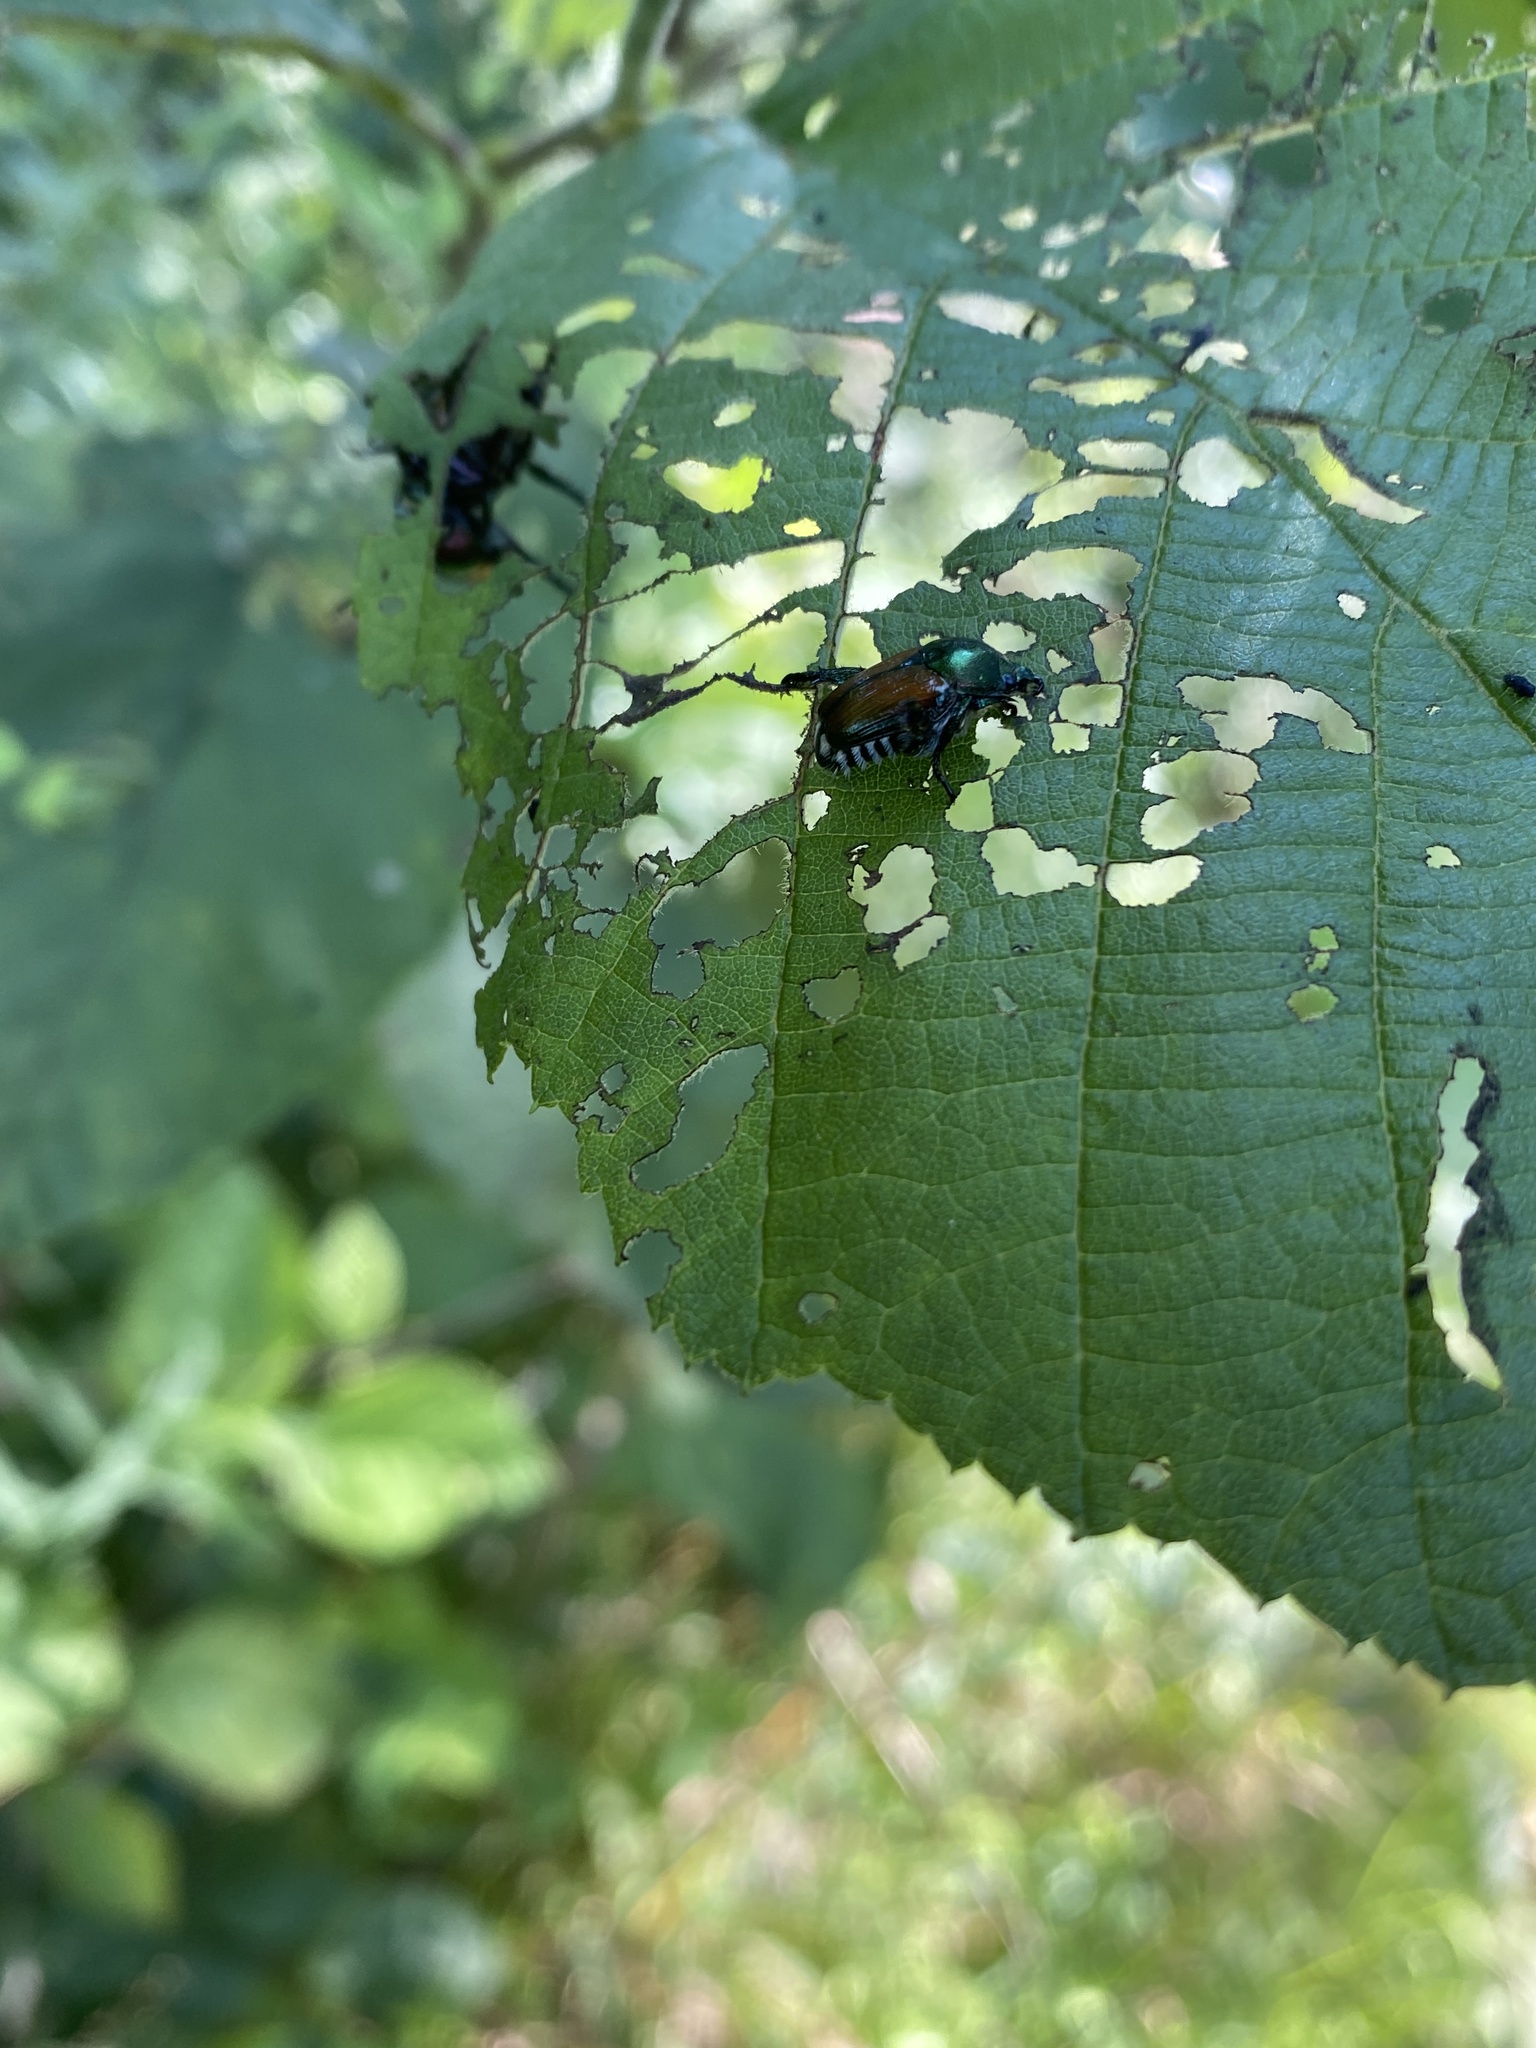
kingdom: Animalia
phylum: Arthropoda
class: Insecta
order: Coleoptera
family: Scarabaeidae
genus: Popillia
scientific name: Popillia japonica
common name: Japanese beetle
